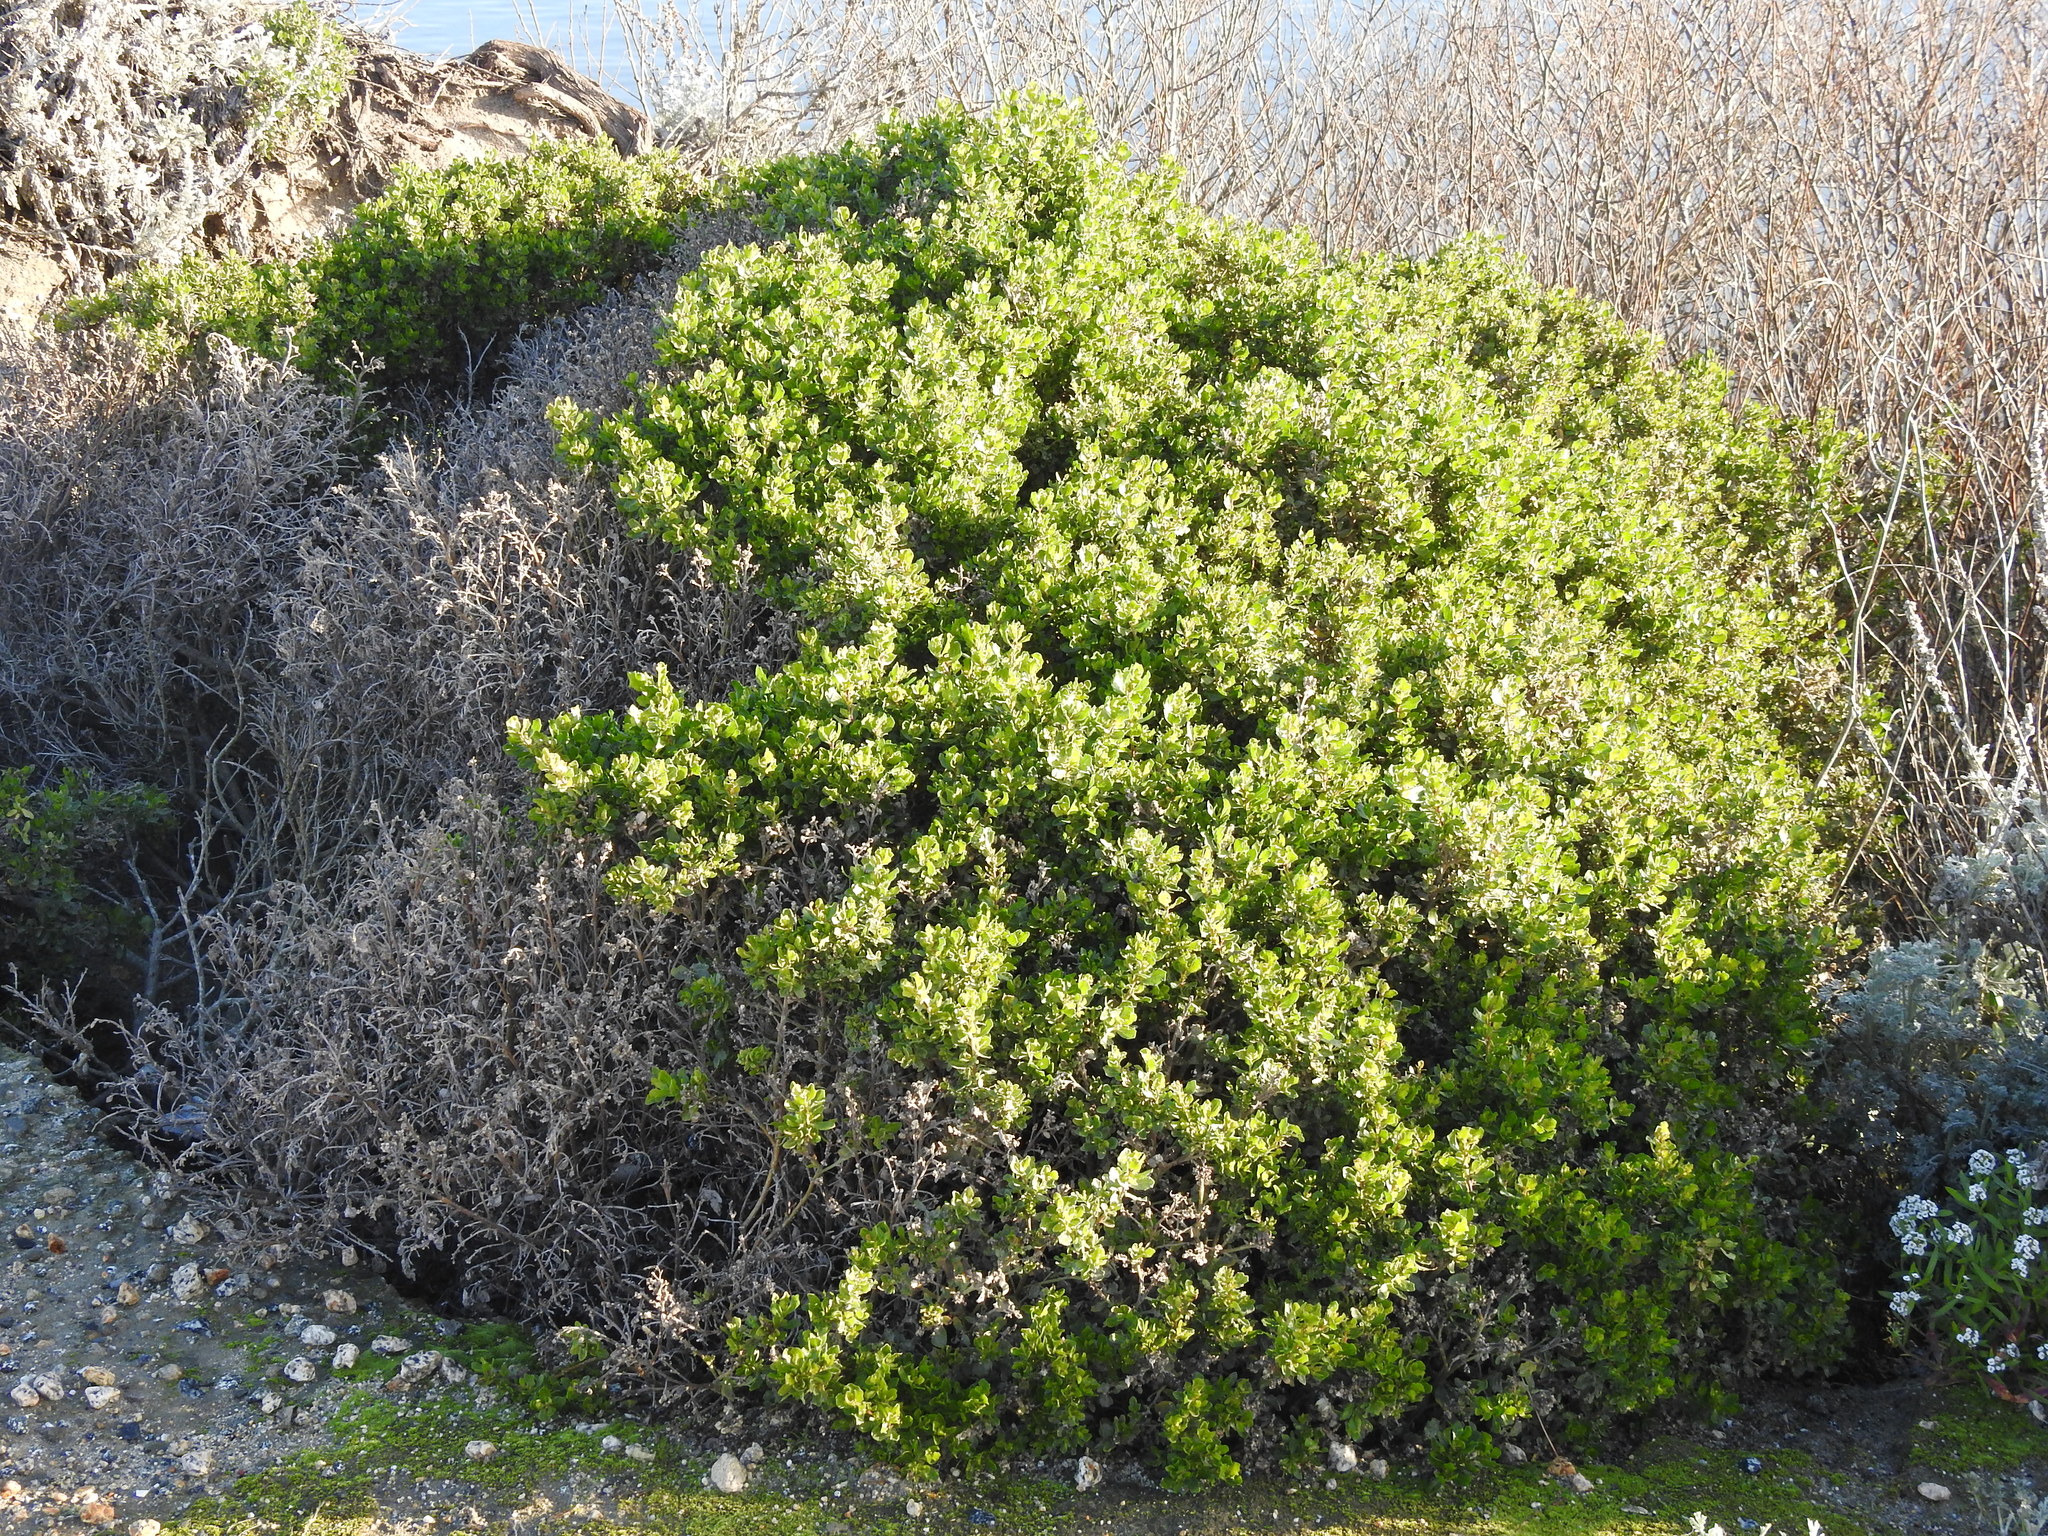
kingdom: Plantae
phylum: Tracheophyta
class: Magnoliopsida
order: Asterales
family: Asteraceae
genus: Baccharis
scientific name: Baccharis pilularis
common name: Coyotebrush
